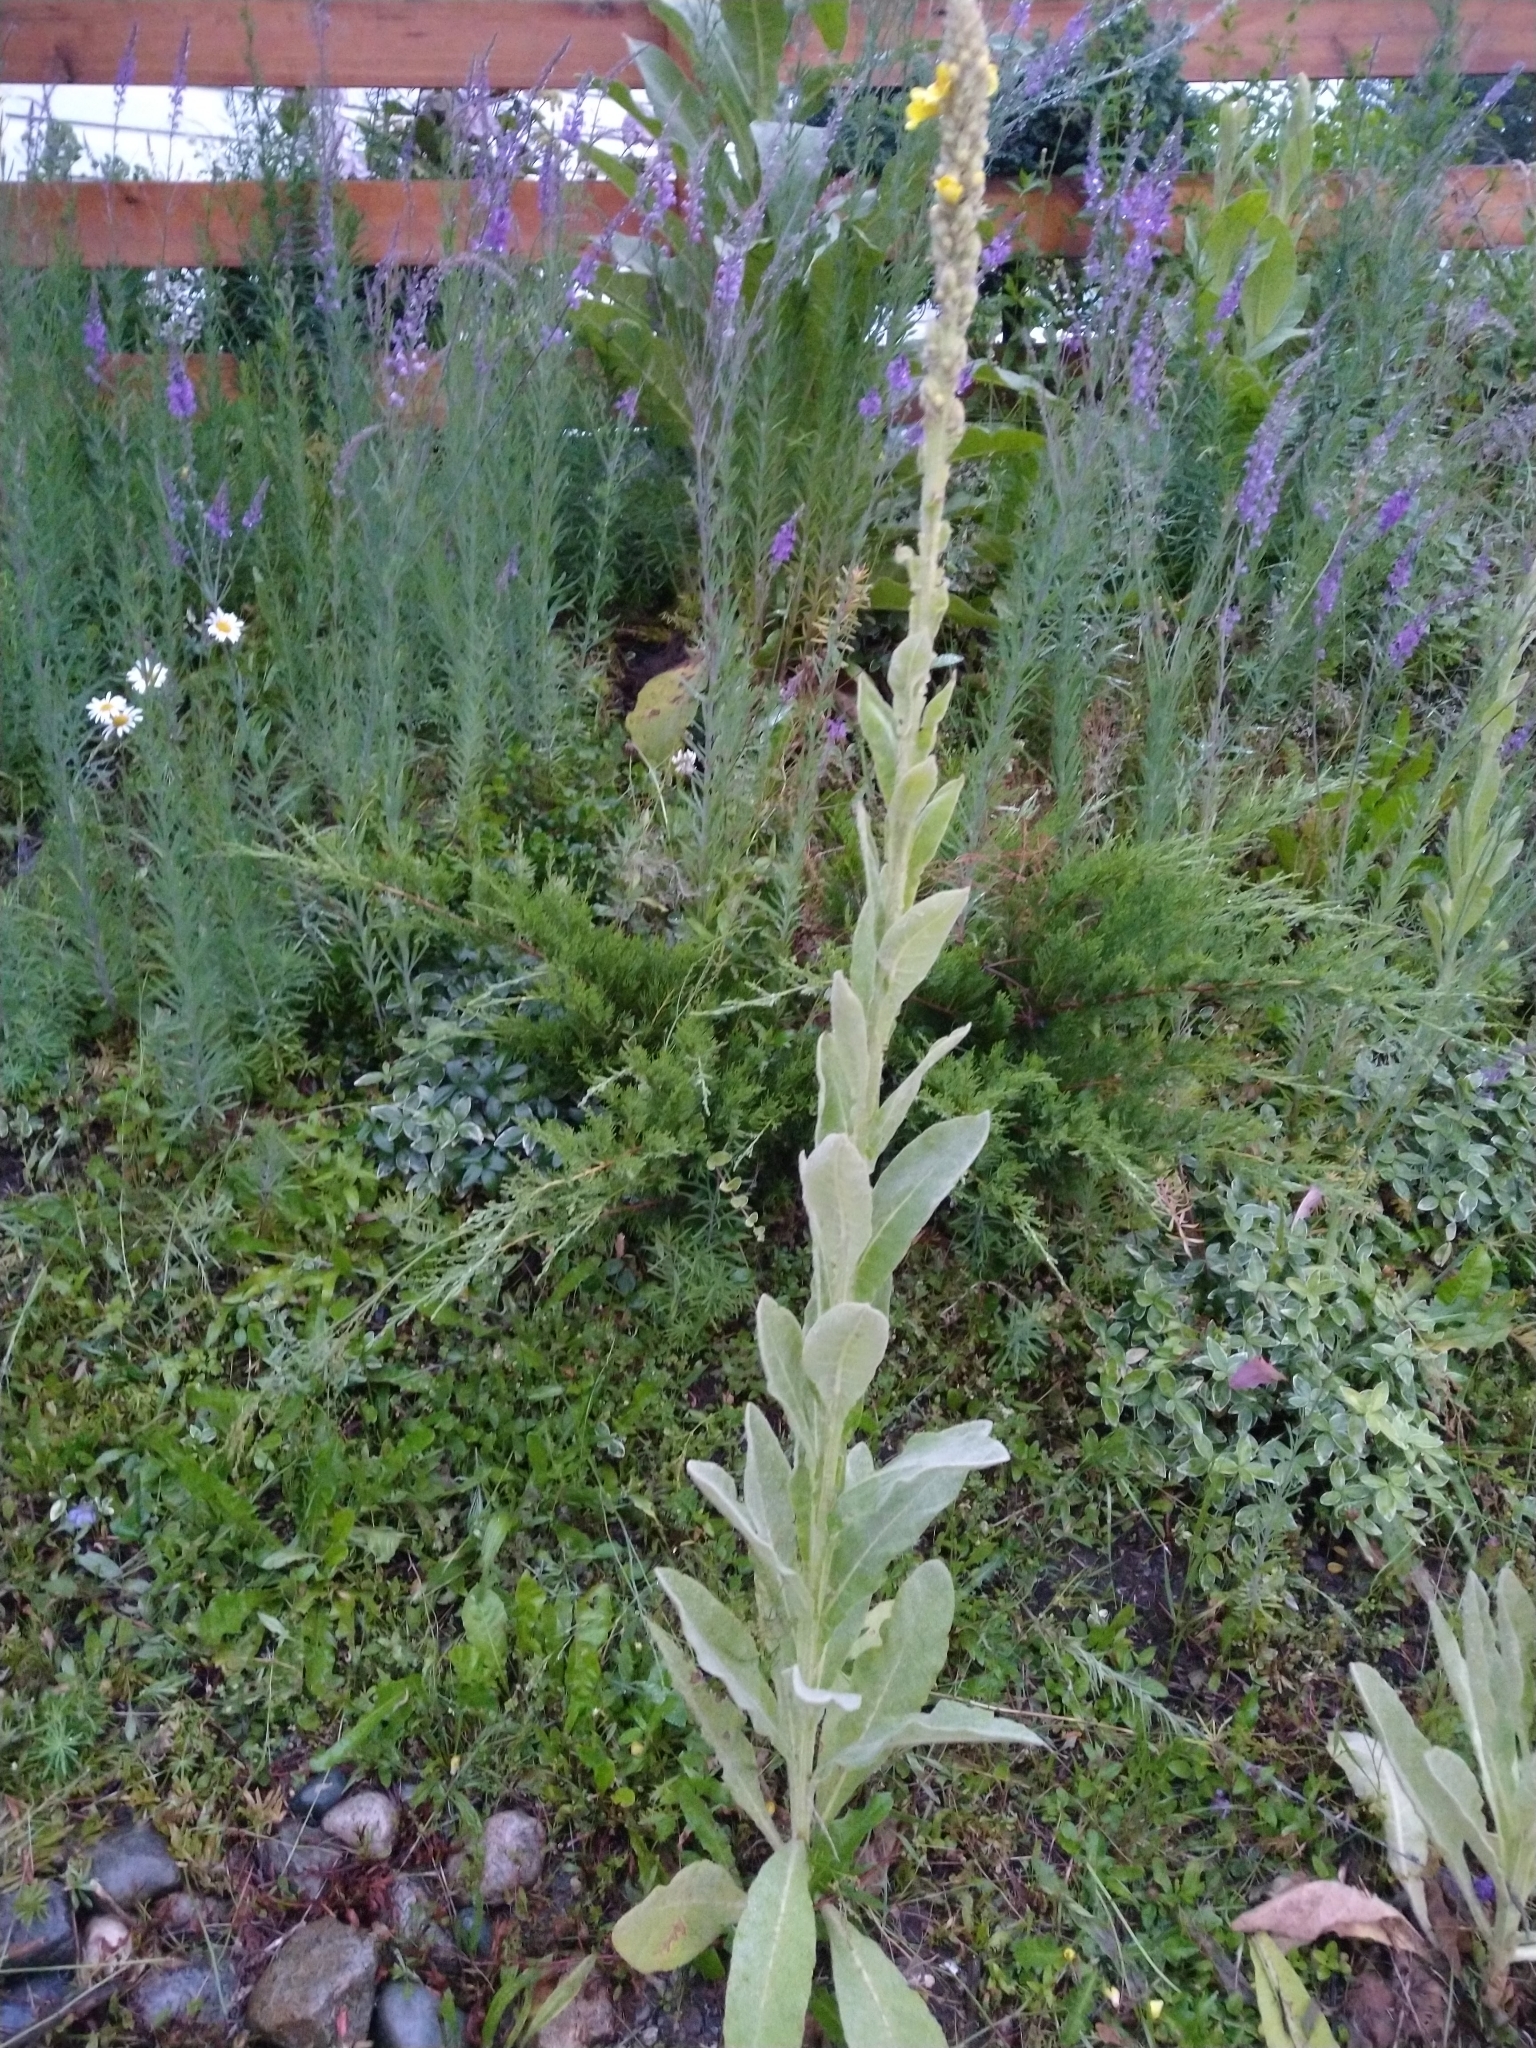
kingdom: Plantae
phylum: Tracheophyta
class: Magnoliopsida
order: Lamiales
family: Scrophulariaceae
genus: Verbascum
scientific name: Verbascum thapsus
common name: Common mullein
